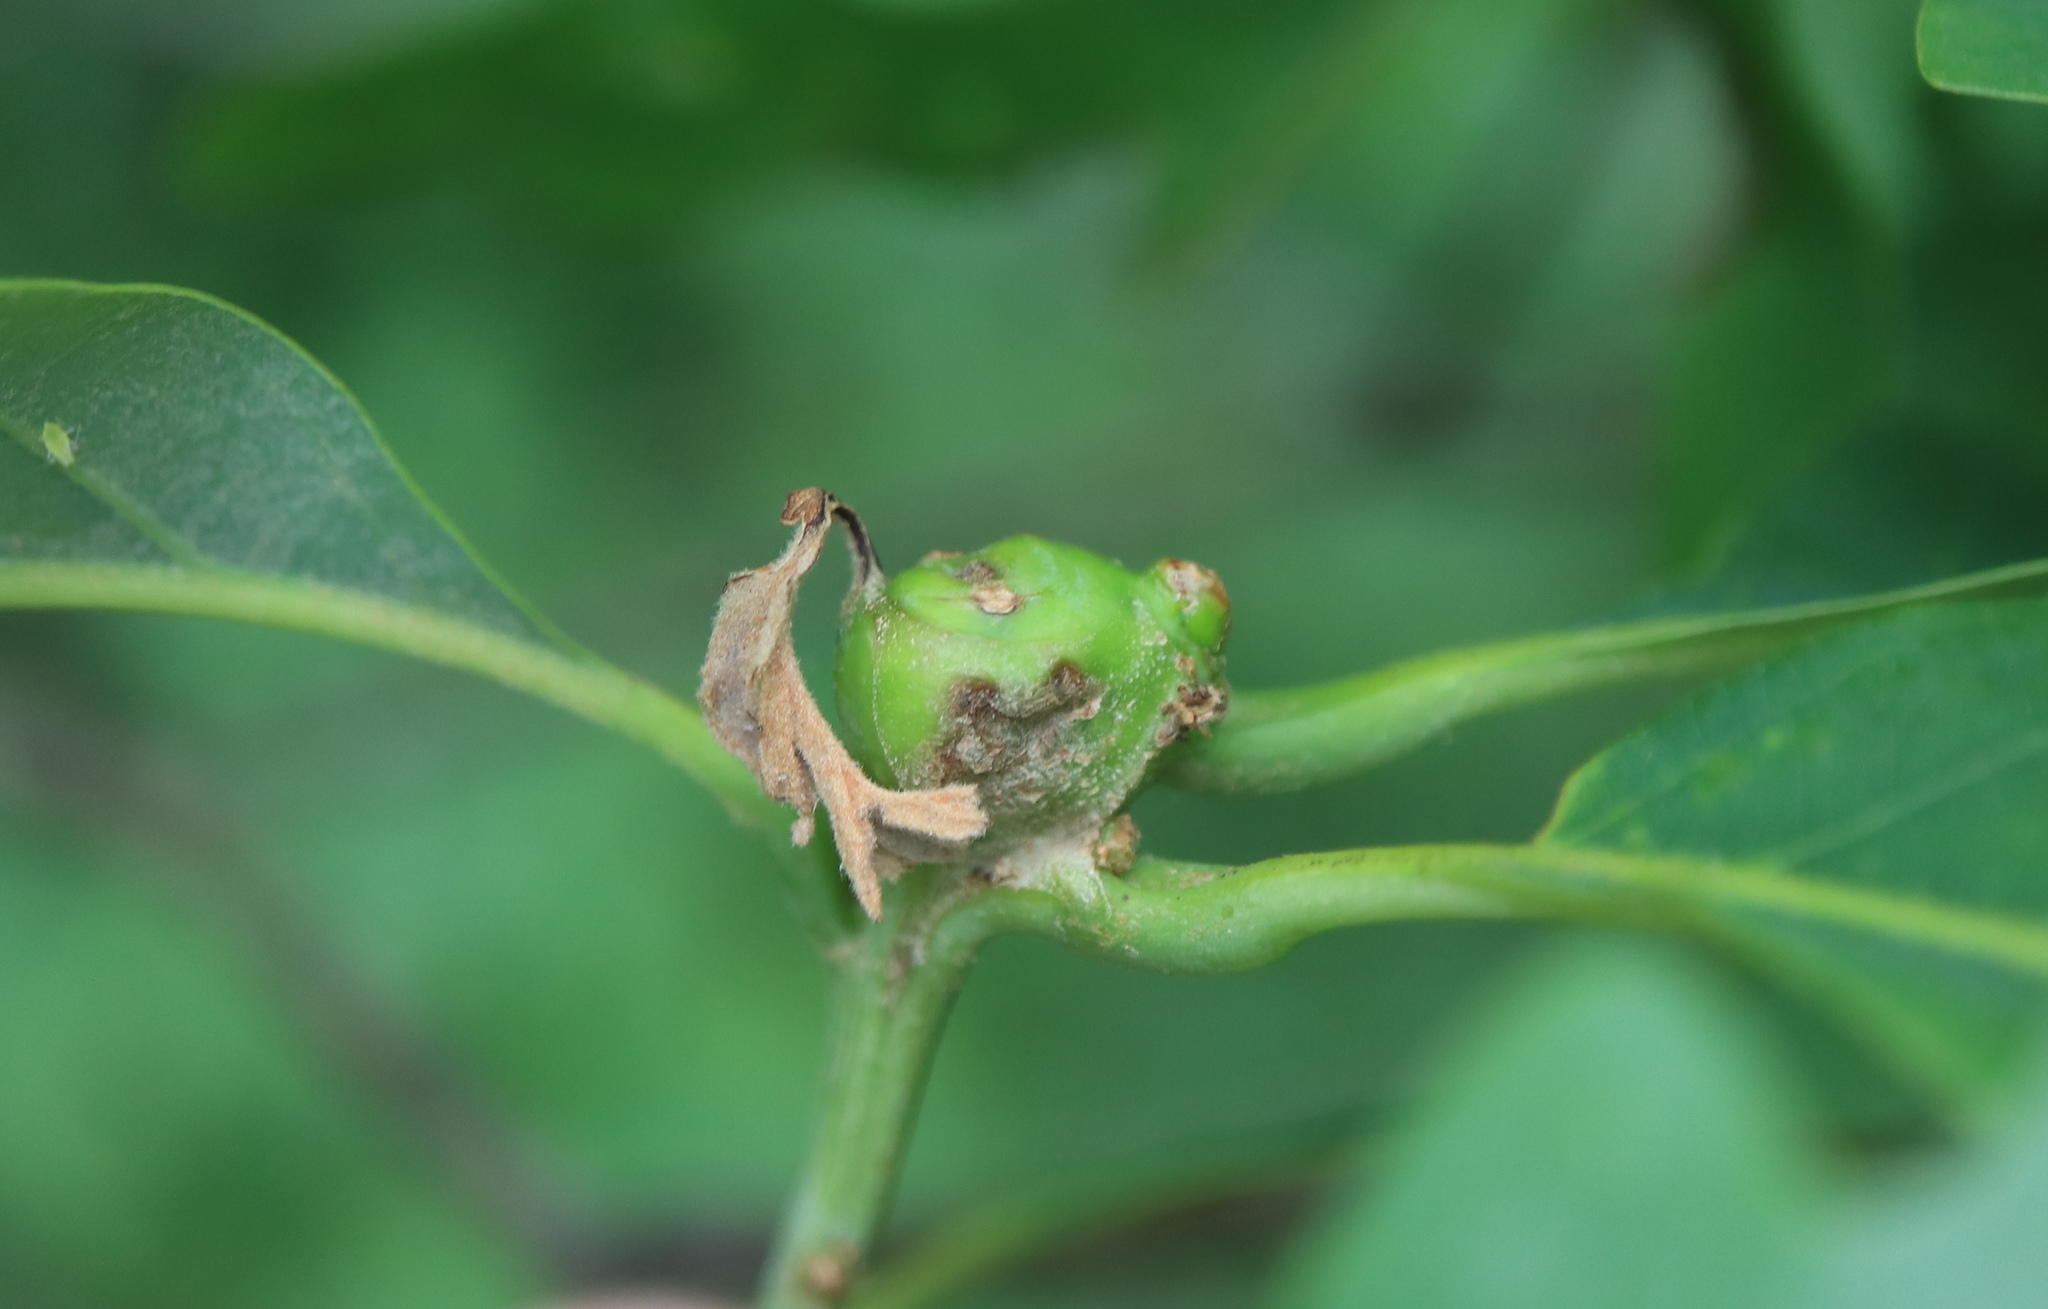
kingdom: Animalia
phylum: Arthropoda
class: Insecta
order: Hymenoptera
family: Cynipidae
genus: Callirhytis
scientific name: Callirhytis clavula
